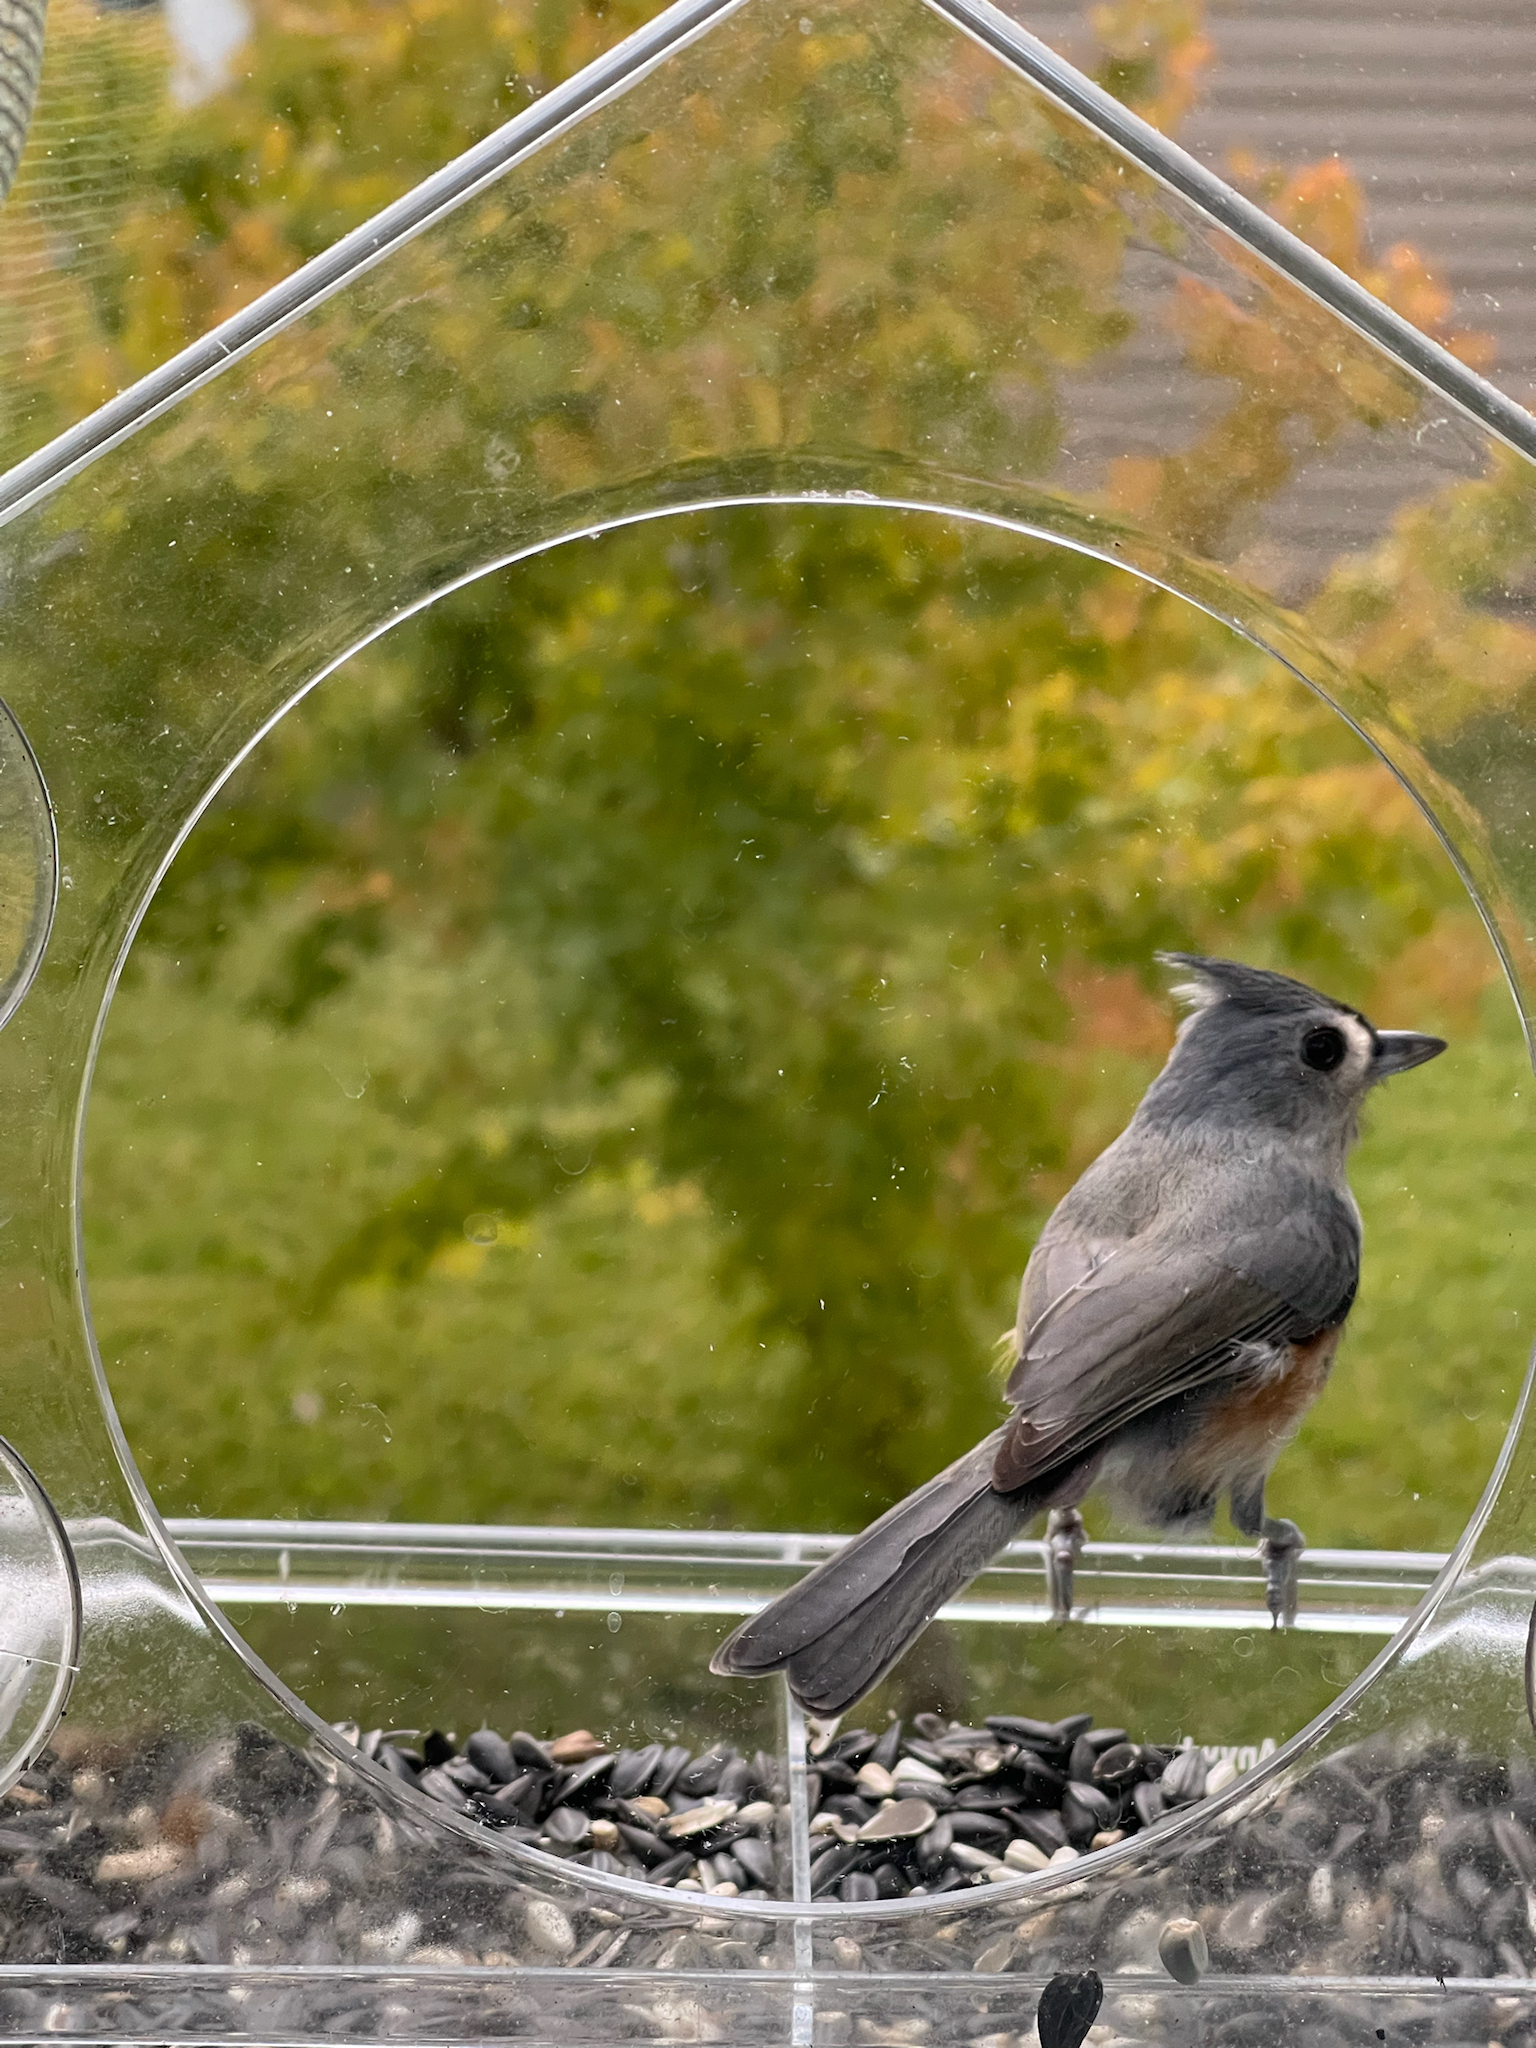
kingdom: Animalia
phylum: Chordata
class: Aves
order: Passeriformes
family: Paridae
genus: Baeolophus
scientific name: Baeolophus bicolor
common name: Tufted titmouse
